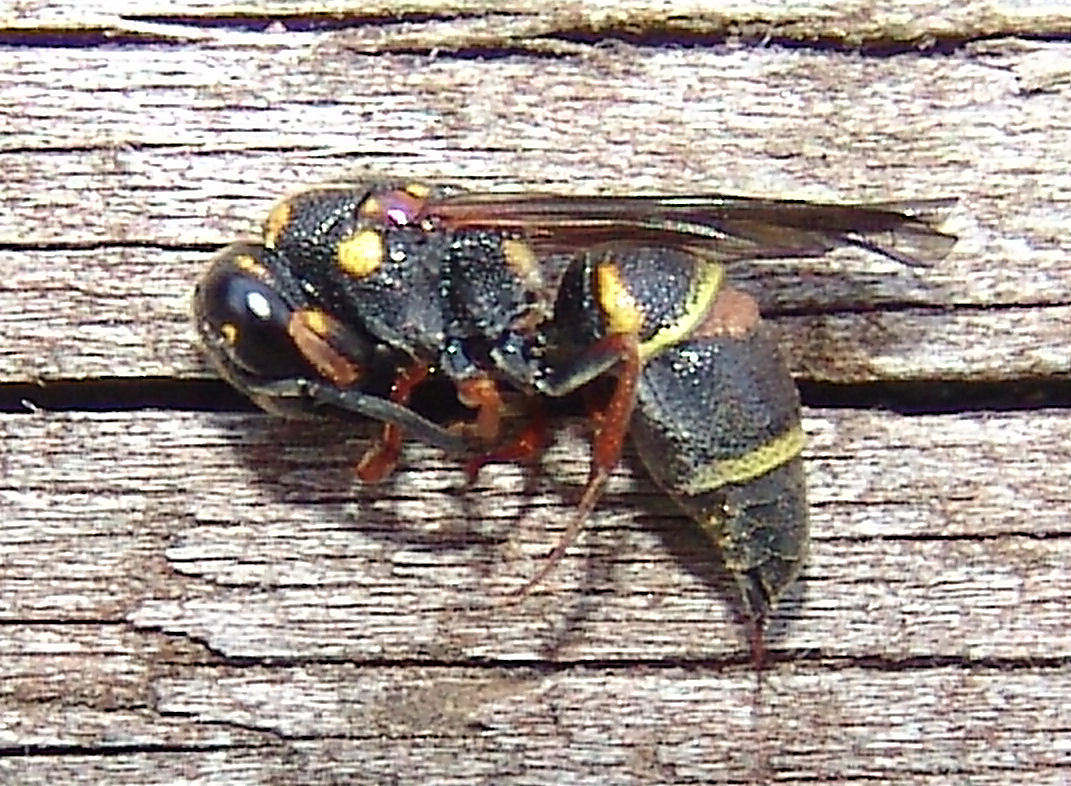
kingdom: Animalia
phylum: Arthropoda
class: Insecta
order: Hymenoptera
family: Eumenidae
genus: Parancistrocerus
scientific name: Parancistrocerus fulvipes
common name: Potter wasp
